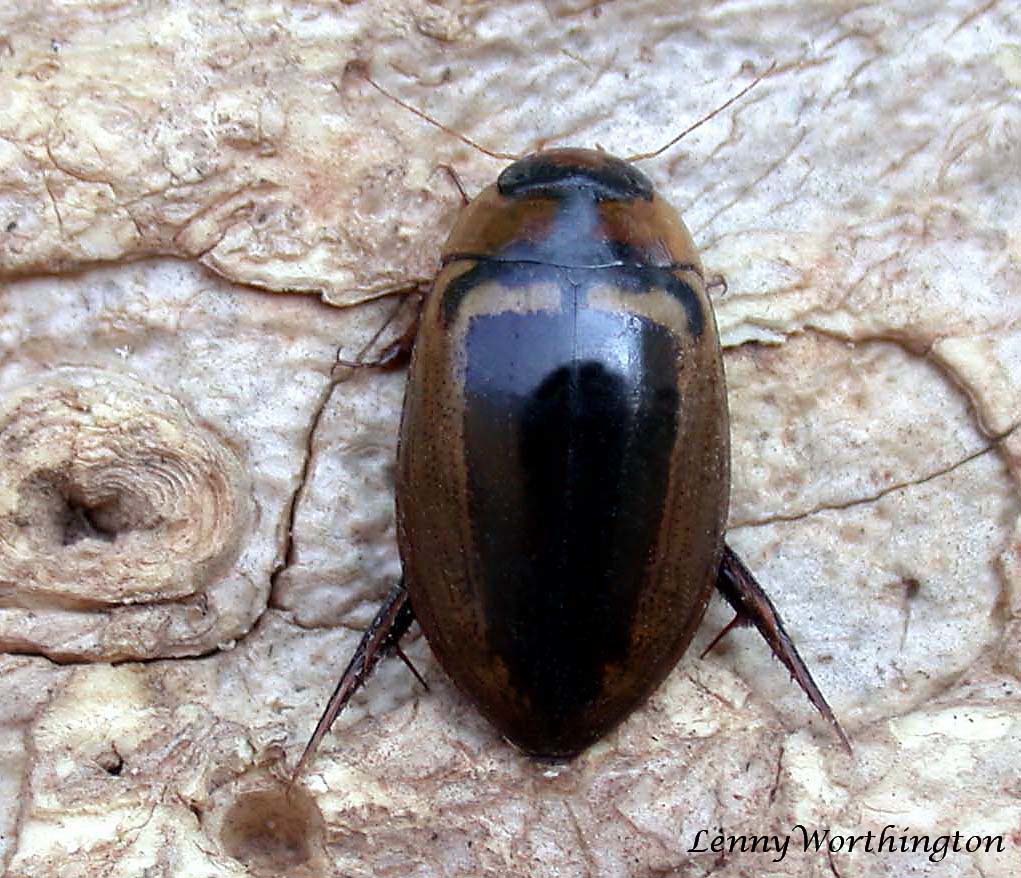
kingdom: Animalia
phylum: Arthropoda
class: Insecta
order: Coleoptera
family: Dytiscidae
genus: Hydaticus
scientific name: Hydaticus luczonicus
